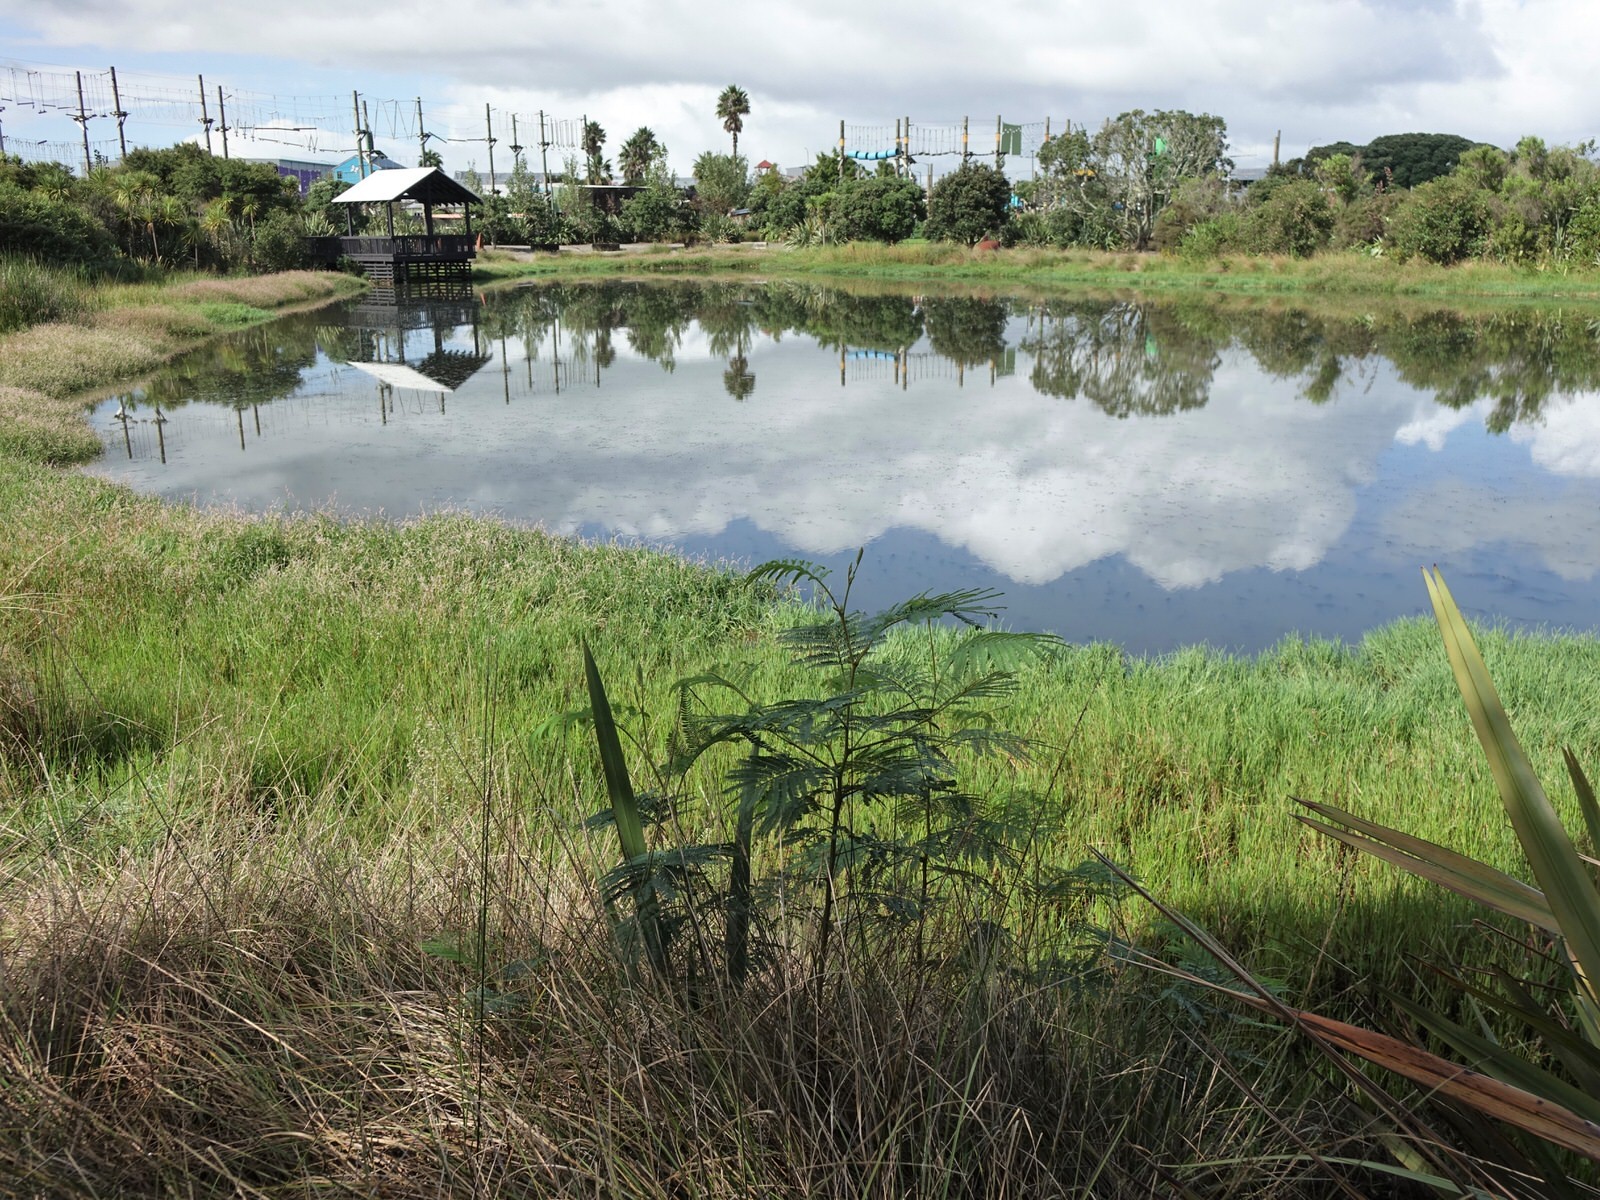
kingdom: Plantae
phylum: Tracheophyta
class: Magnoliopsida
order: Fabales
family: Fabaceae
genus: Paraserianthes
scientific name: Paraserianthes lophantha
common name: Plume albizia
